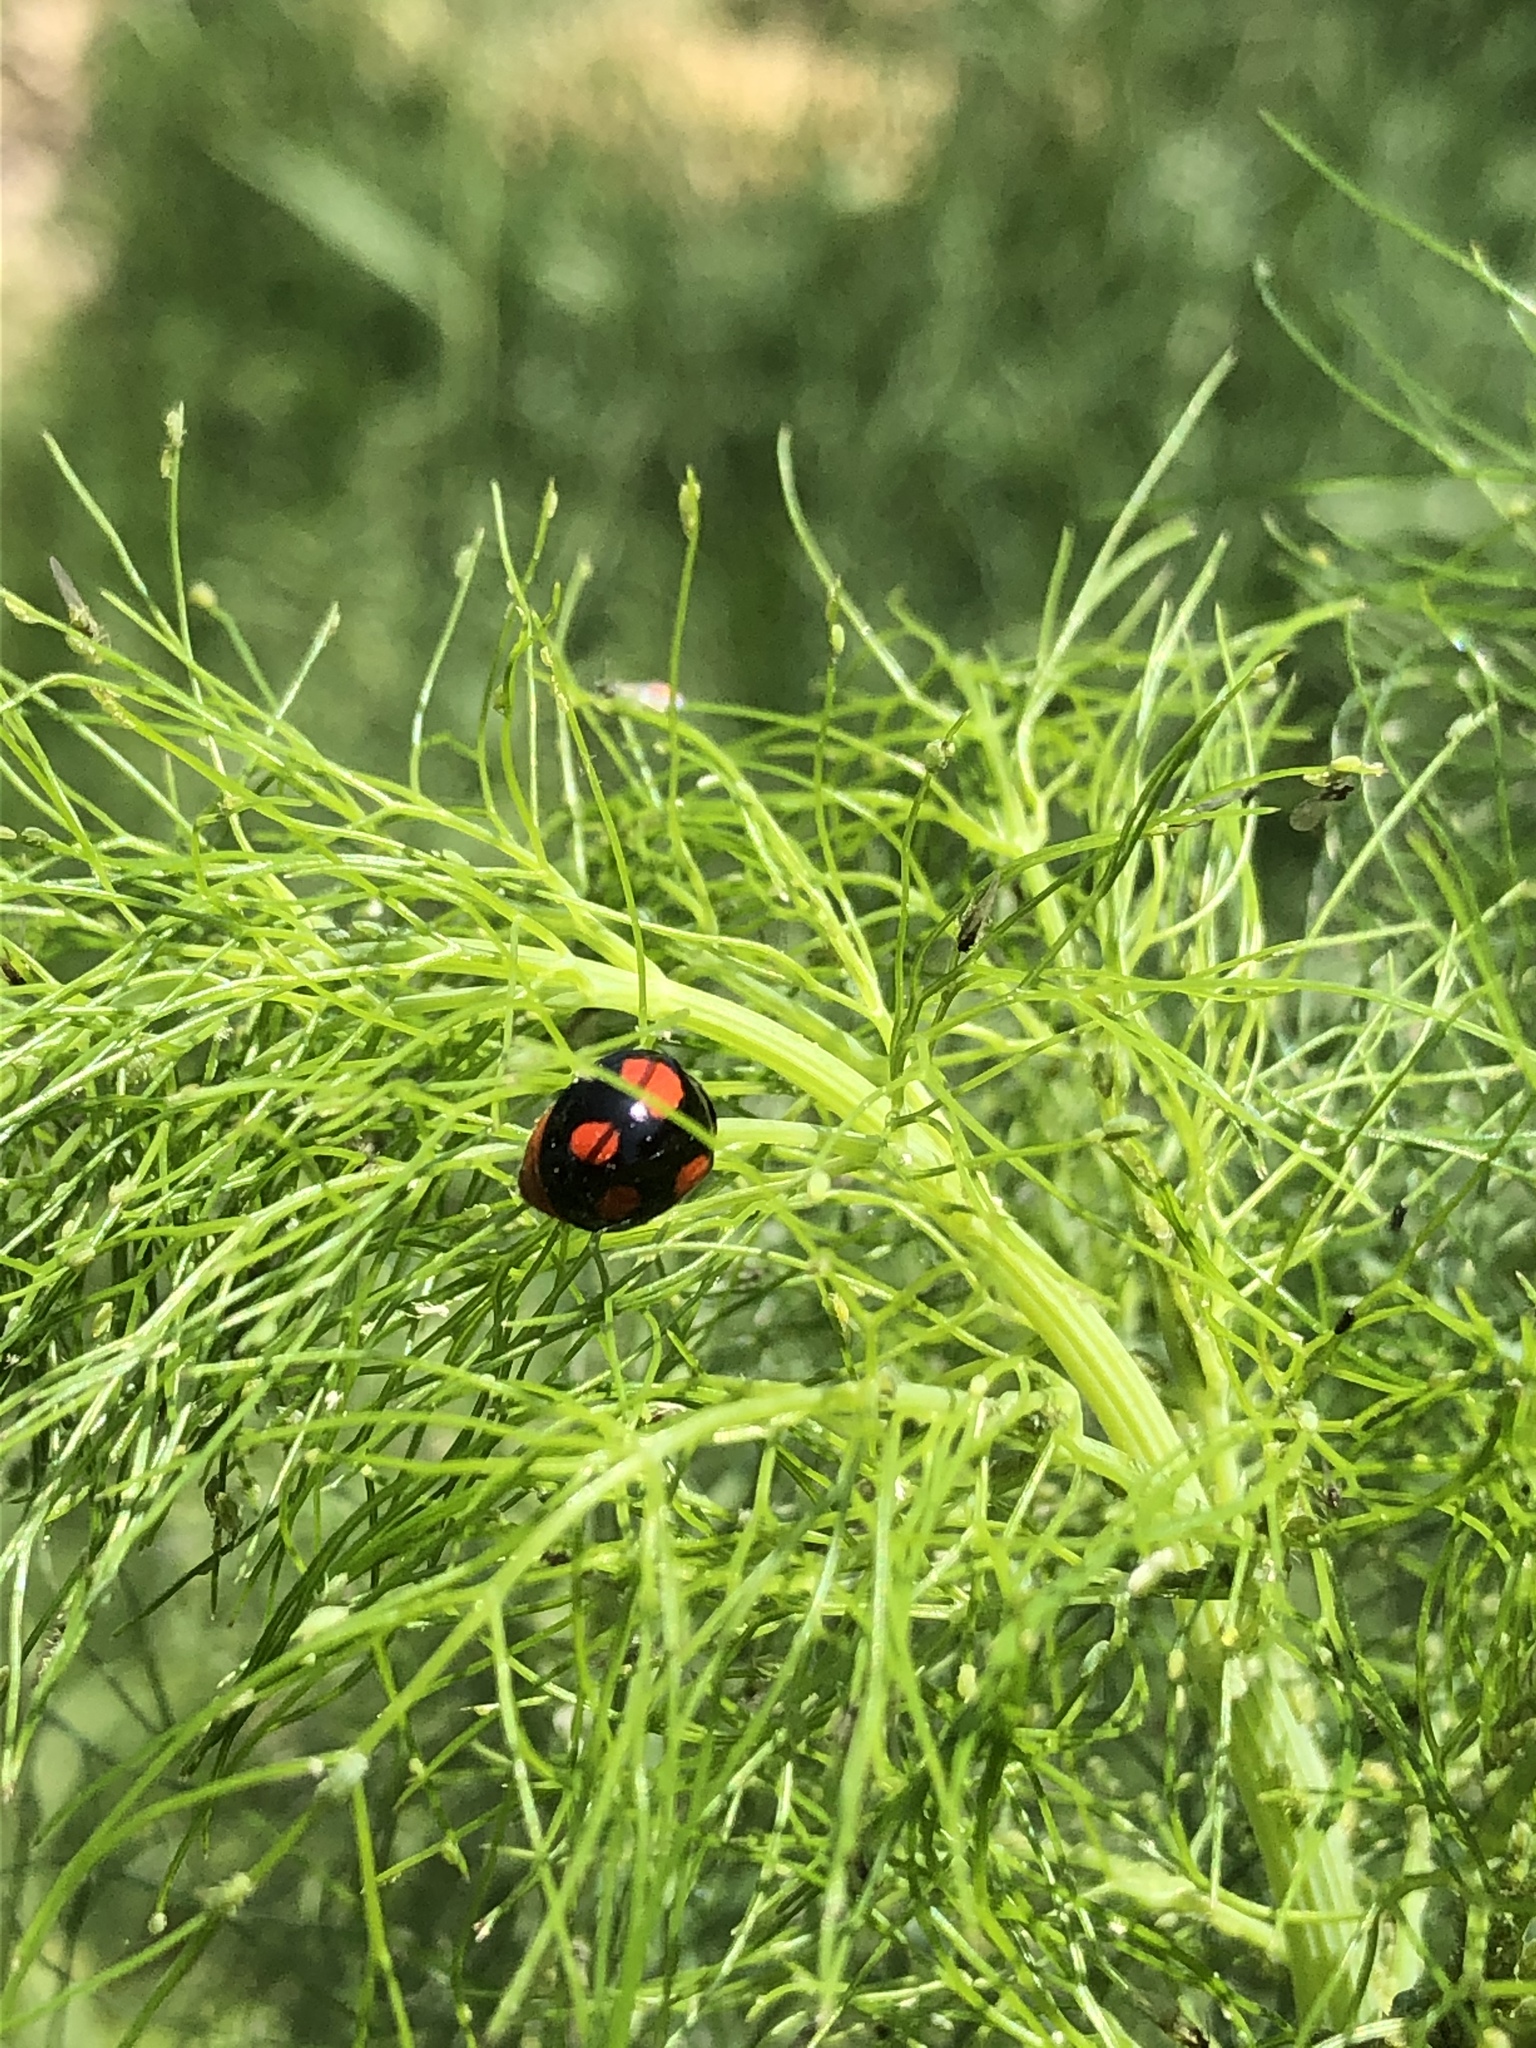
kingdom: Animalia
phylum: Arthropoda
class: Insecta
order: Coleoptera
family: Coccinellidae
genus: Harmonia
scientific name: Harmonia axyridis
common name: Harlequin ladybird
